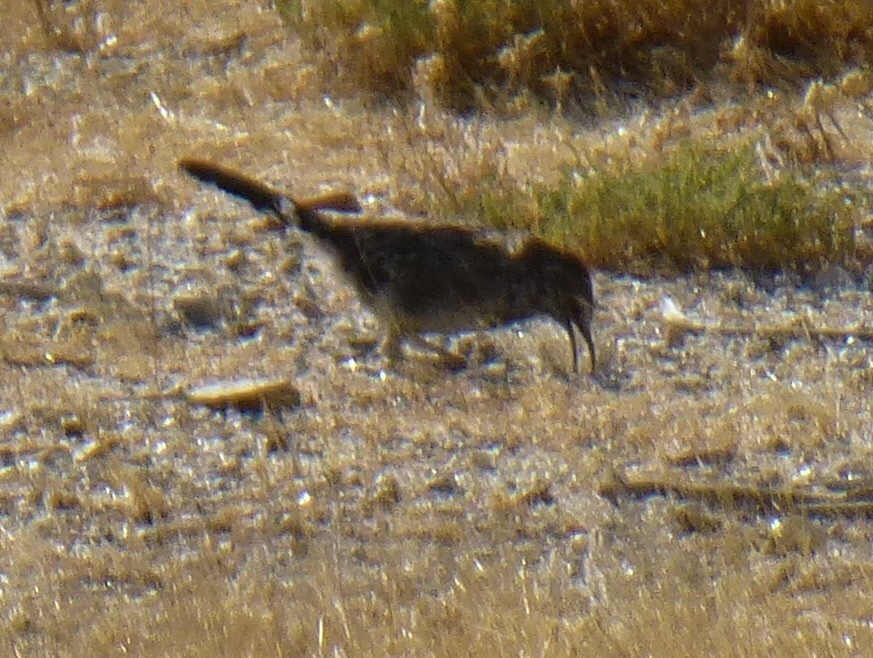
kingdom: Animalia
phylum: Chordata
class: Aves
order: Passeriformes
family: Troglodytidae
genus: Campylorhynchus
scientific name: Campylorhynchus brunneicapillus
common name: Cactus wren
